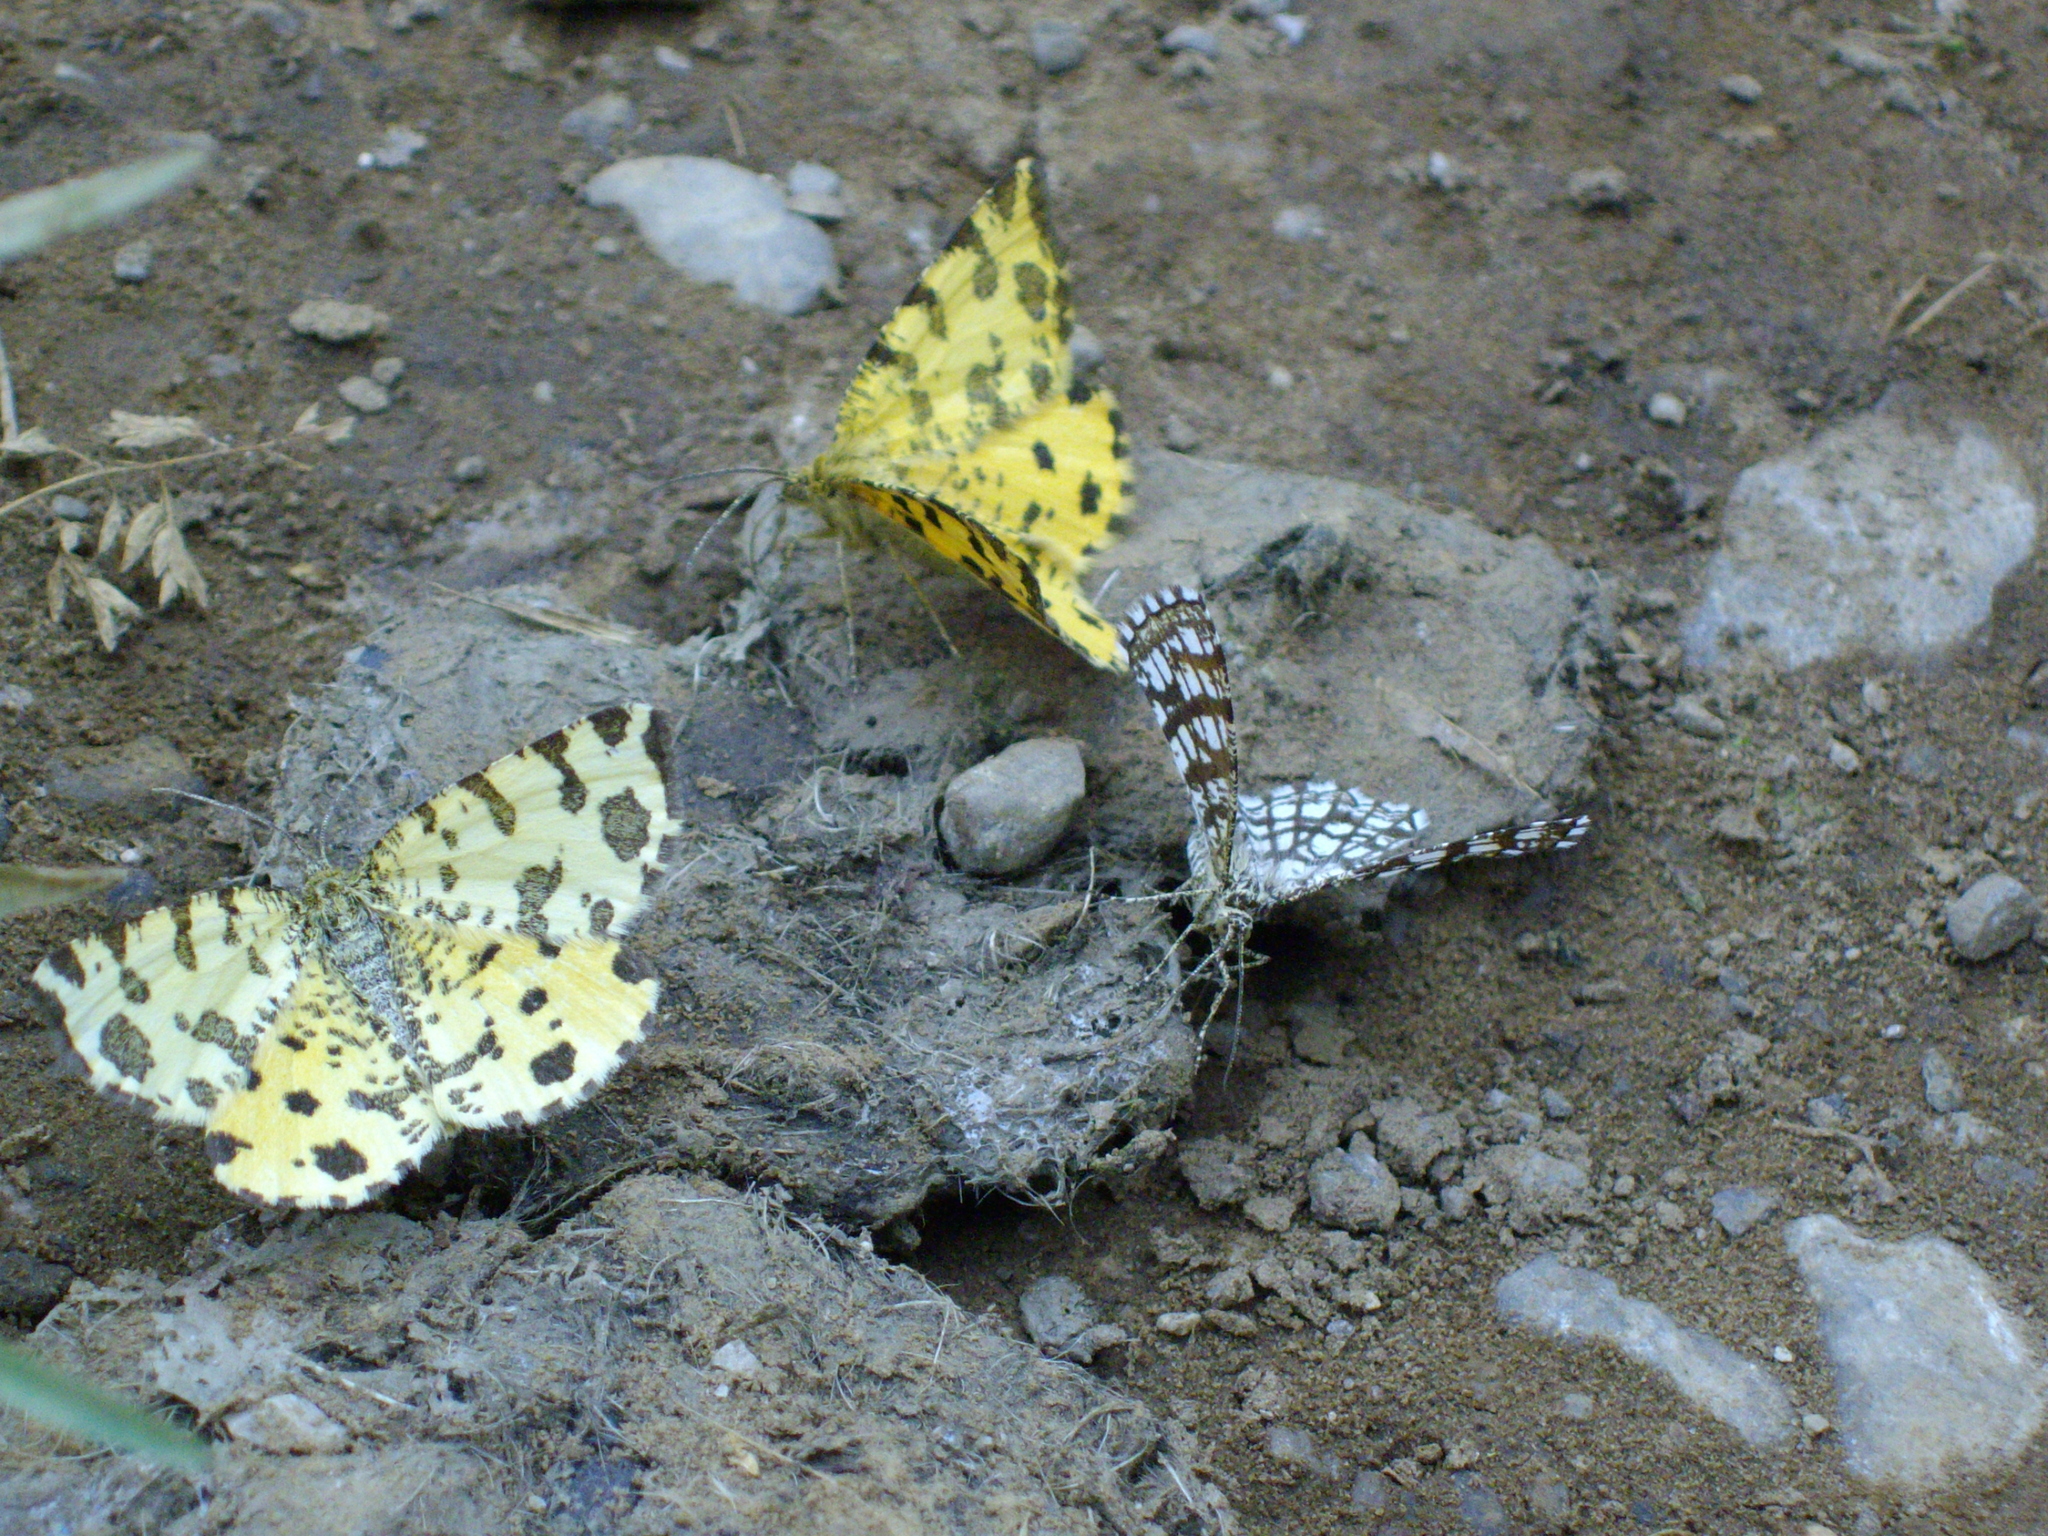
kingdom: Animalia
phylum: Arthropoda
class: Insecta
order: Lepidoptera
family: Geometridae
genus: Chiasmia
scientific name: Chiasmia clathrata
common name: Latticed heath
